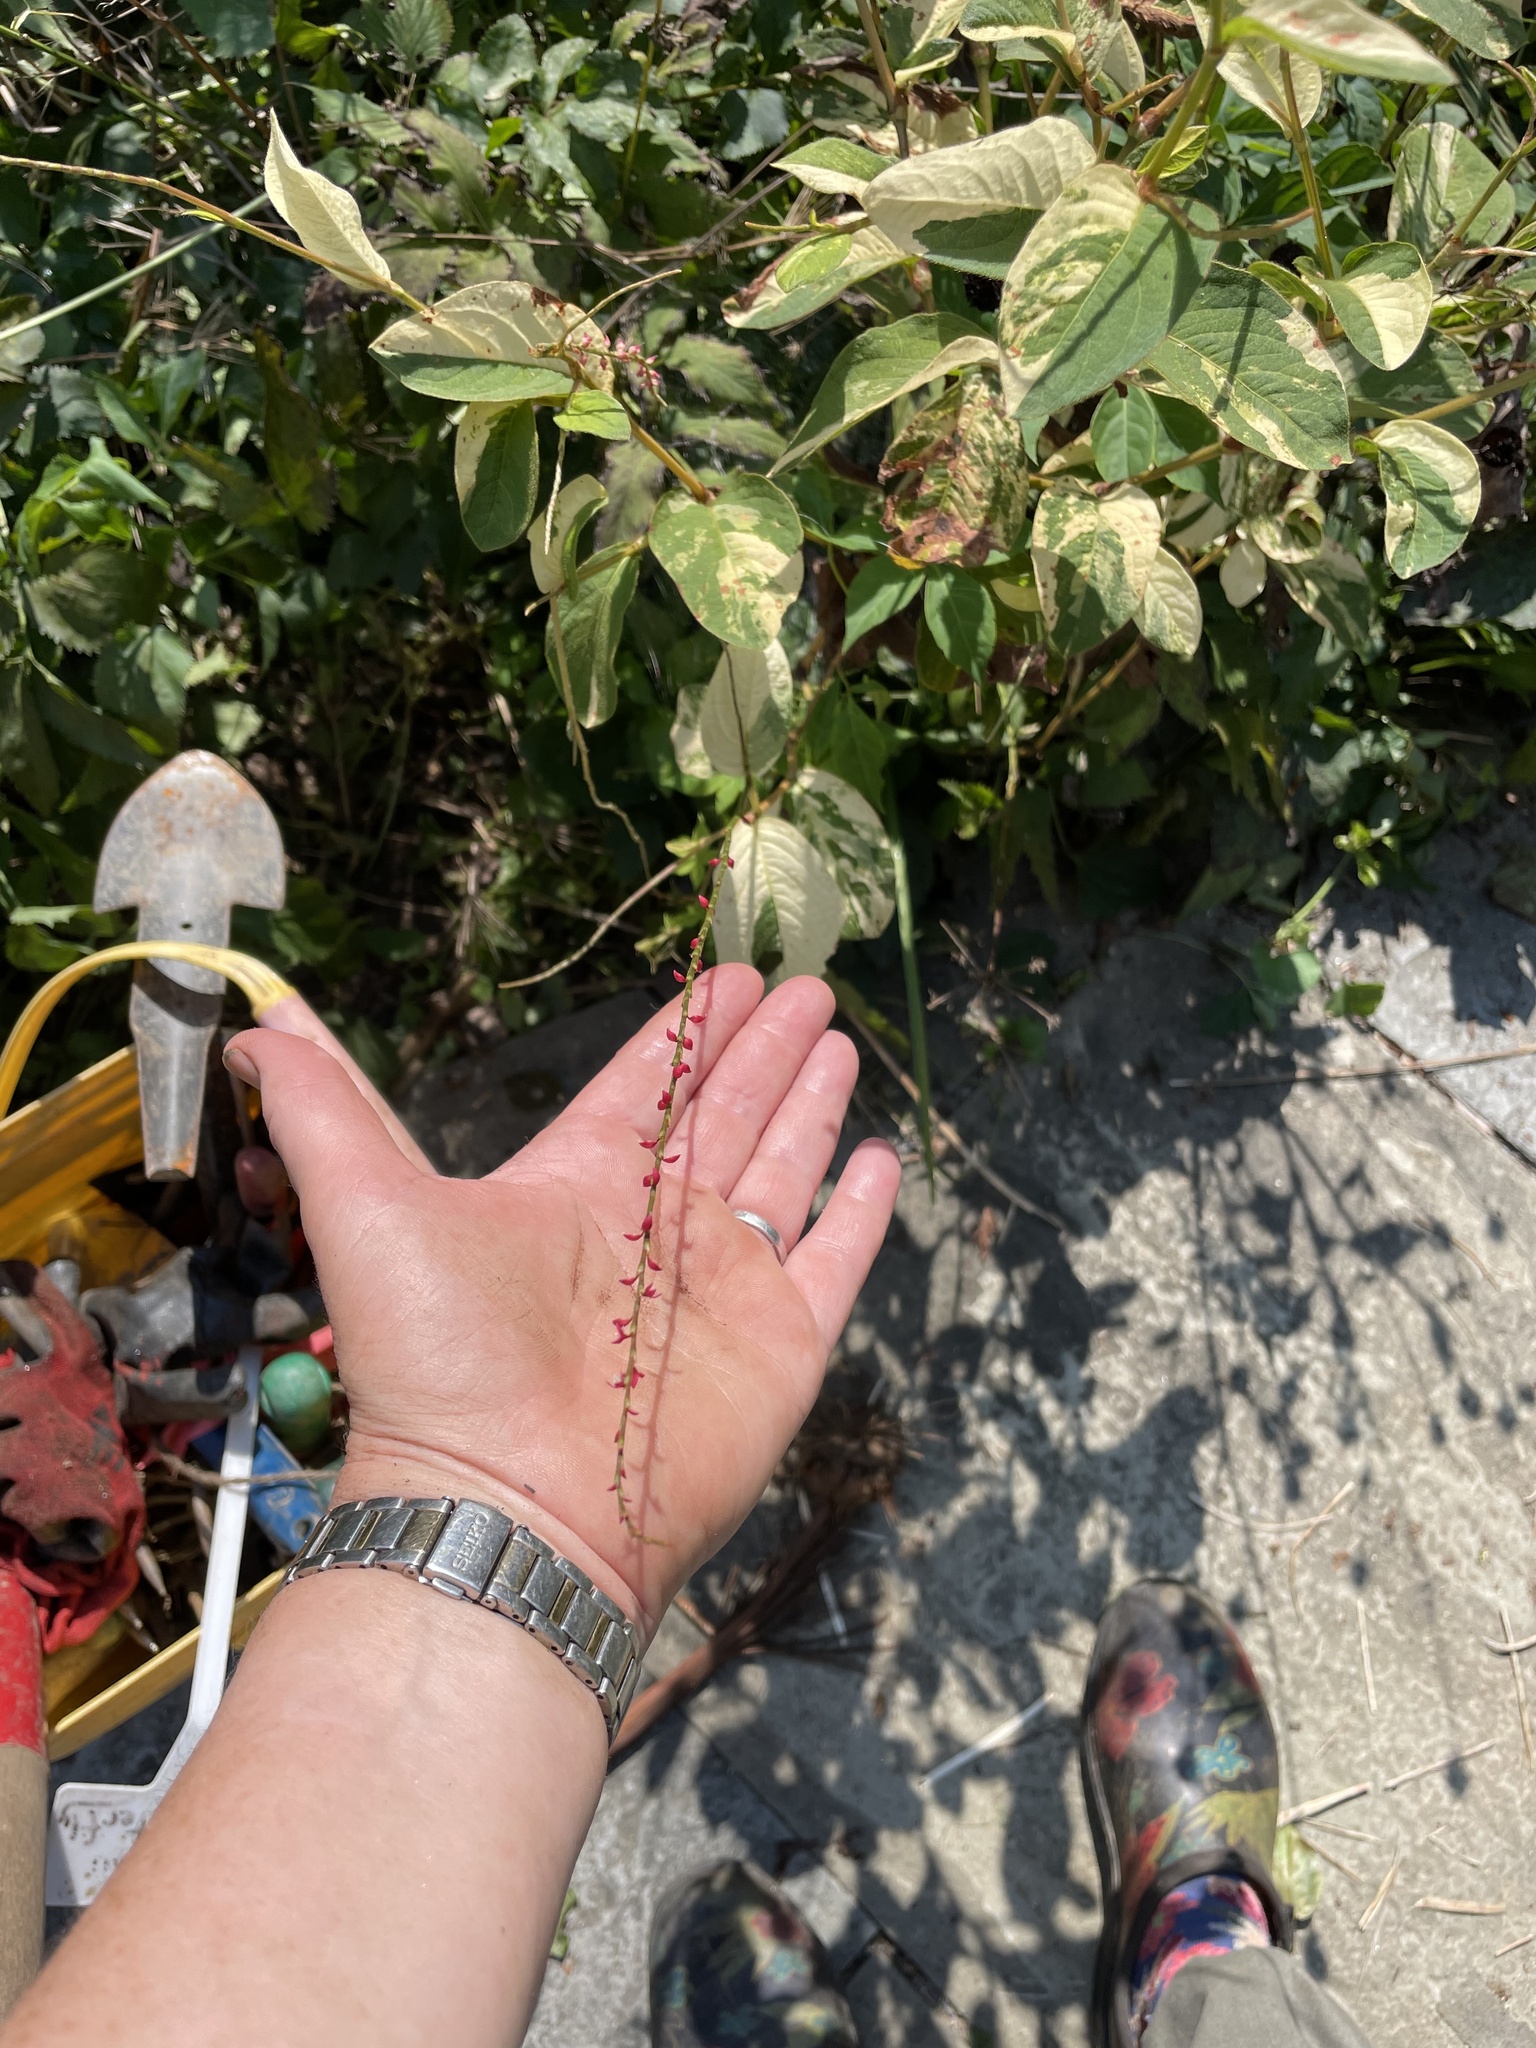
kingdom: Plantae
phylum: Tracheophyta
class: Magnoliopsida
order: Caryophyllales
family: Polygonaceae
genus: Persicaria
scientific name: Persicaria filiformis
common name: Asian jumpseed
